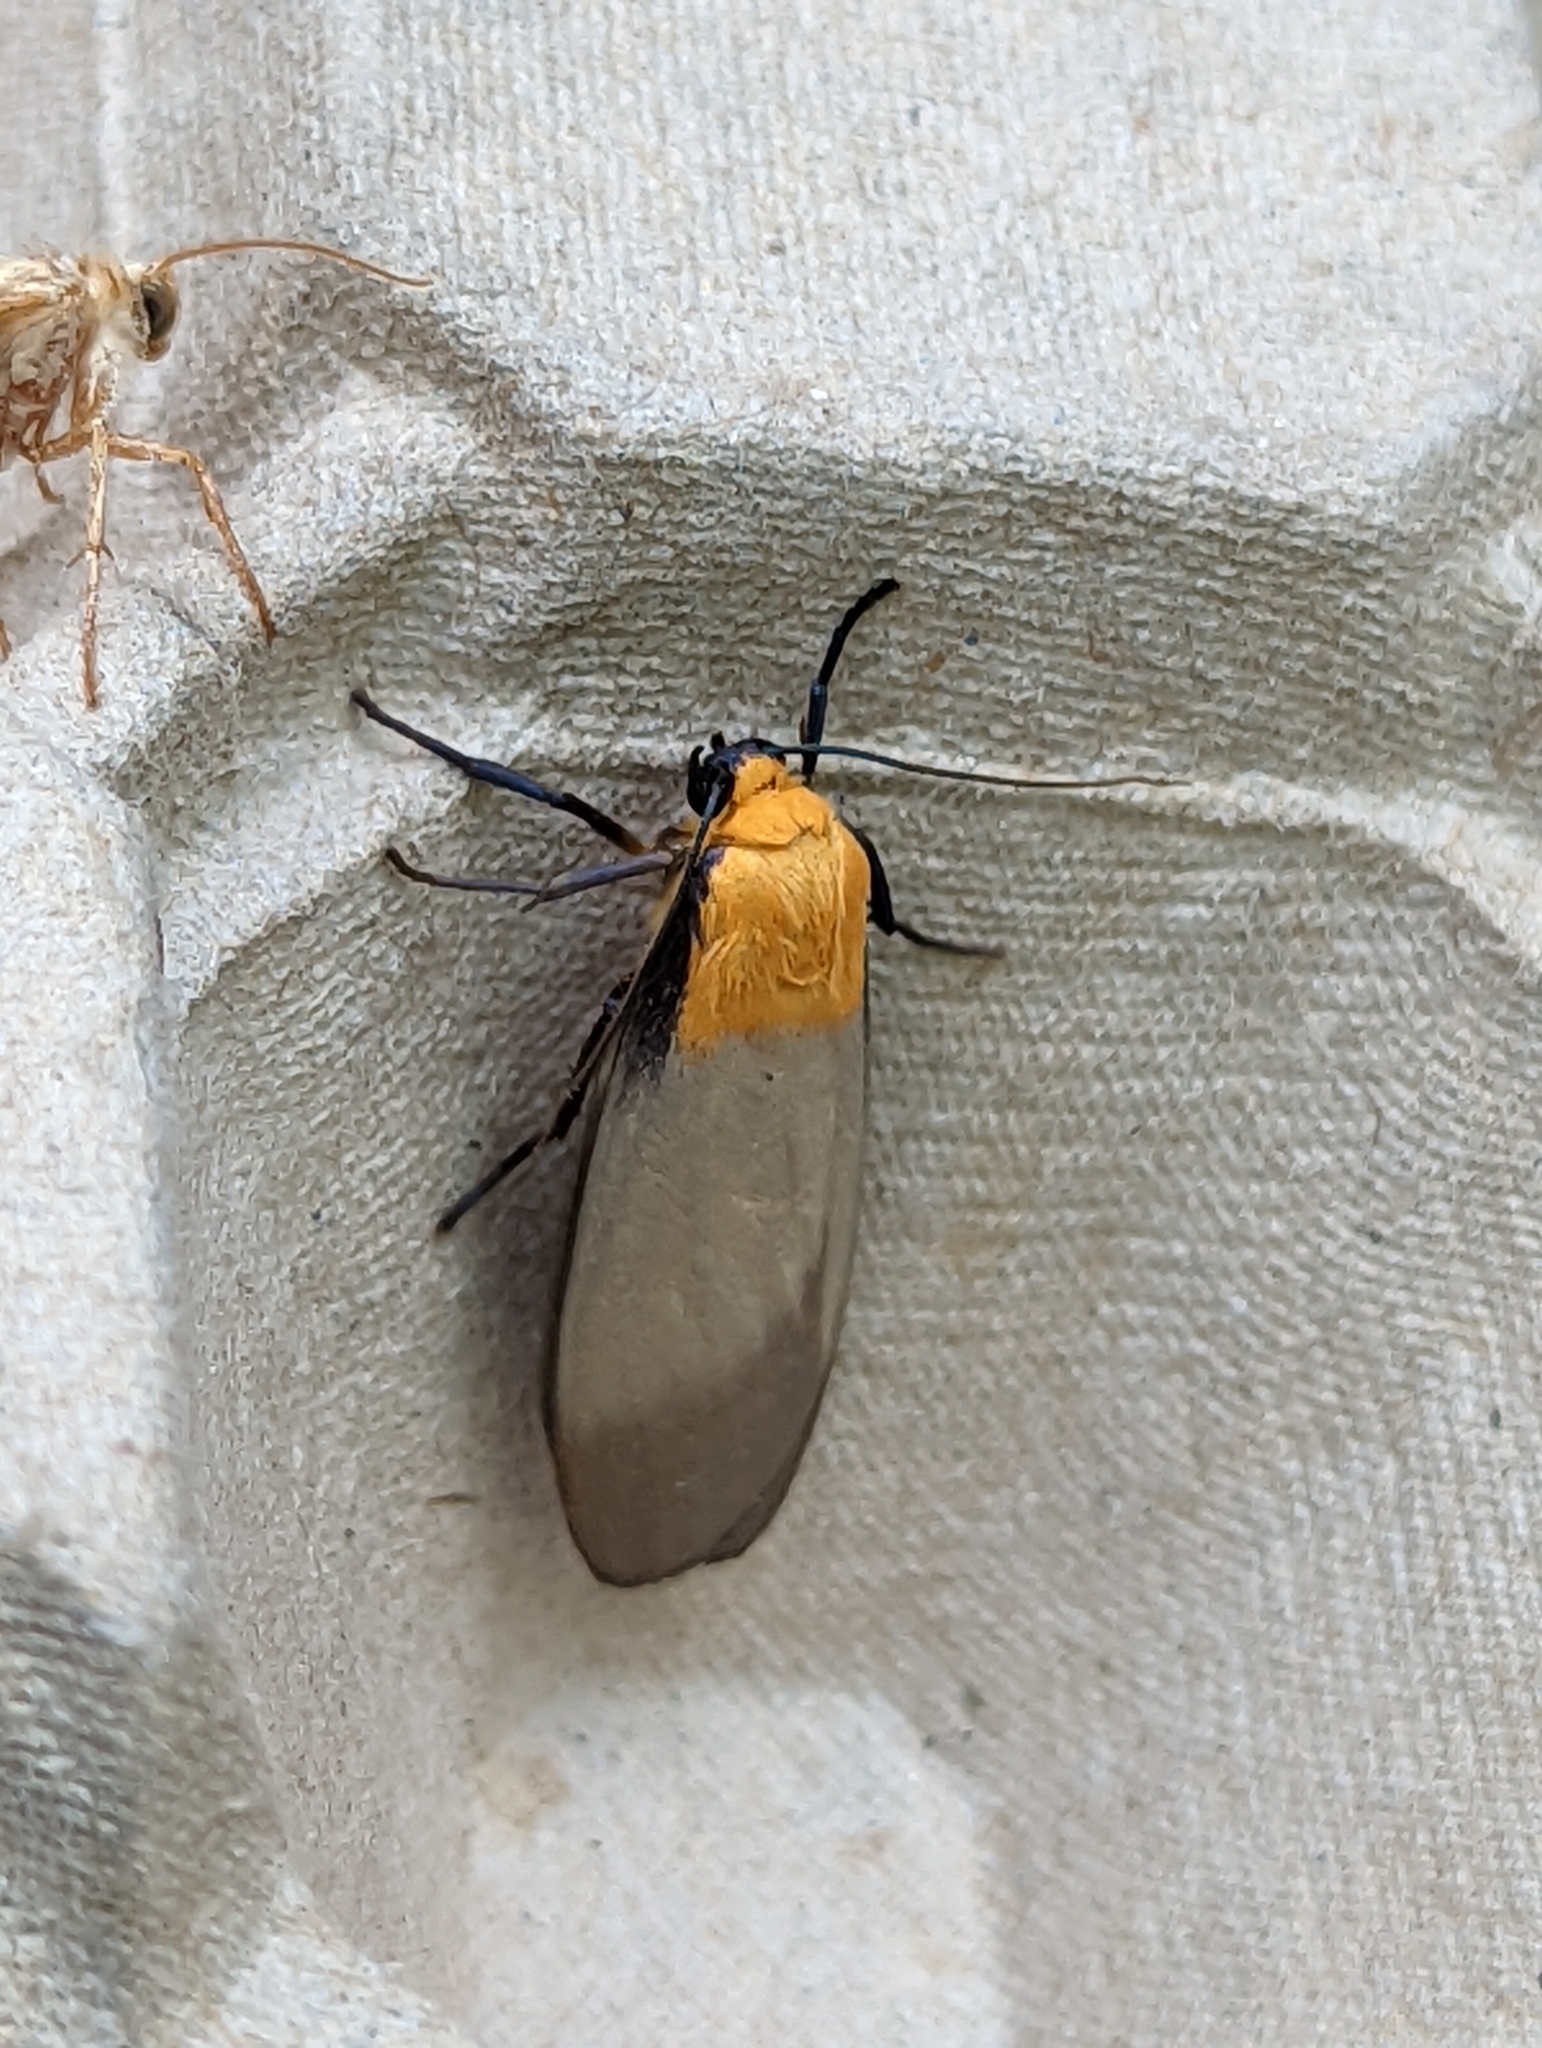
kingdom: Animalia
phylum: Arthropoda
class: Insecta
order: Lepidoptera
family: Erebidae
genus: Lithosia
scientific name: Lithosia quadra
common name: Four-spotted footman
